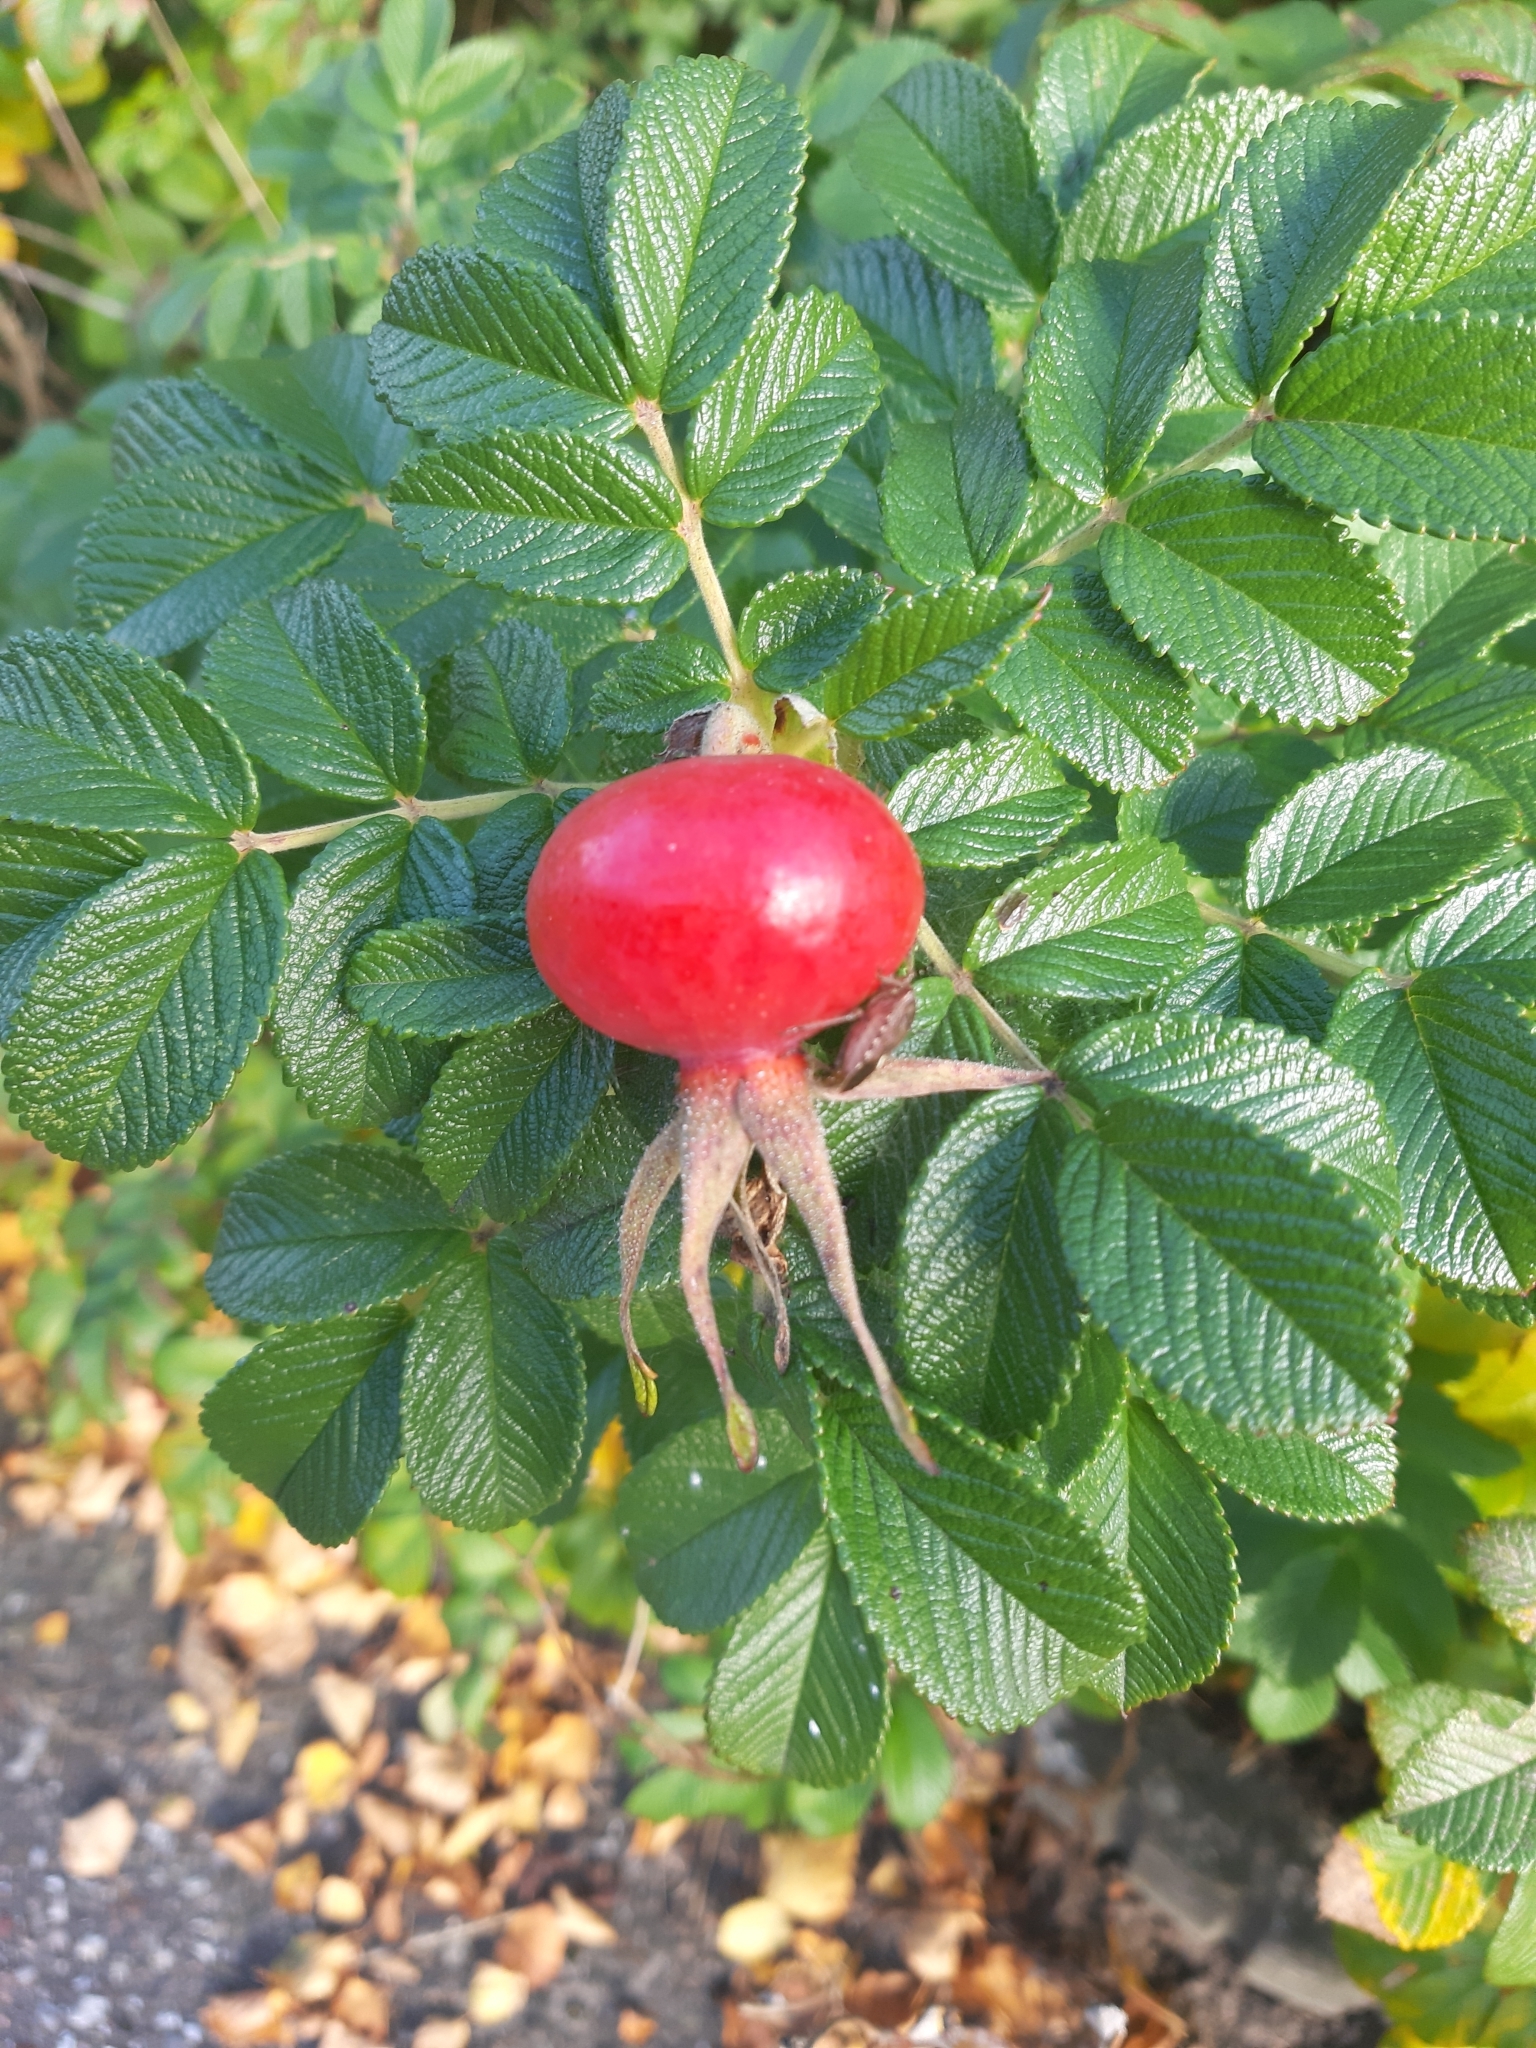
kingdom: Plantae
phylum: Tracheophyta
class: Magnoliopsida
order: Rosales
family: Rosaceae
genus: Rosa
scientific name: Rosa rugosa
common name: Japanese rose
